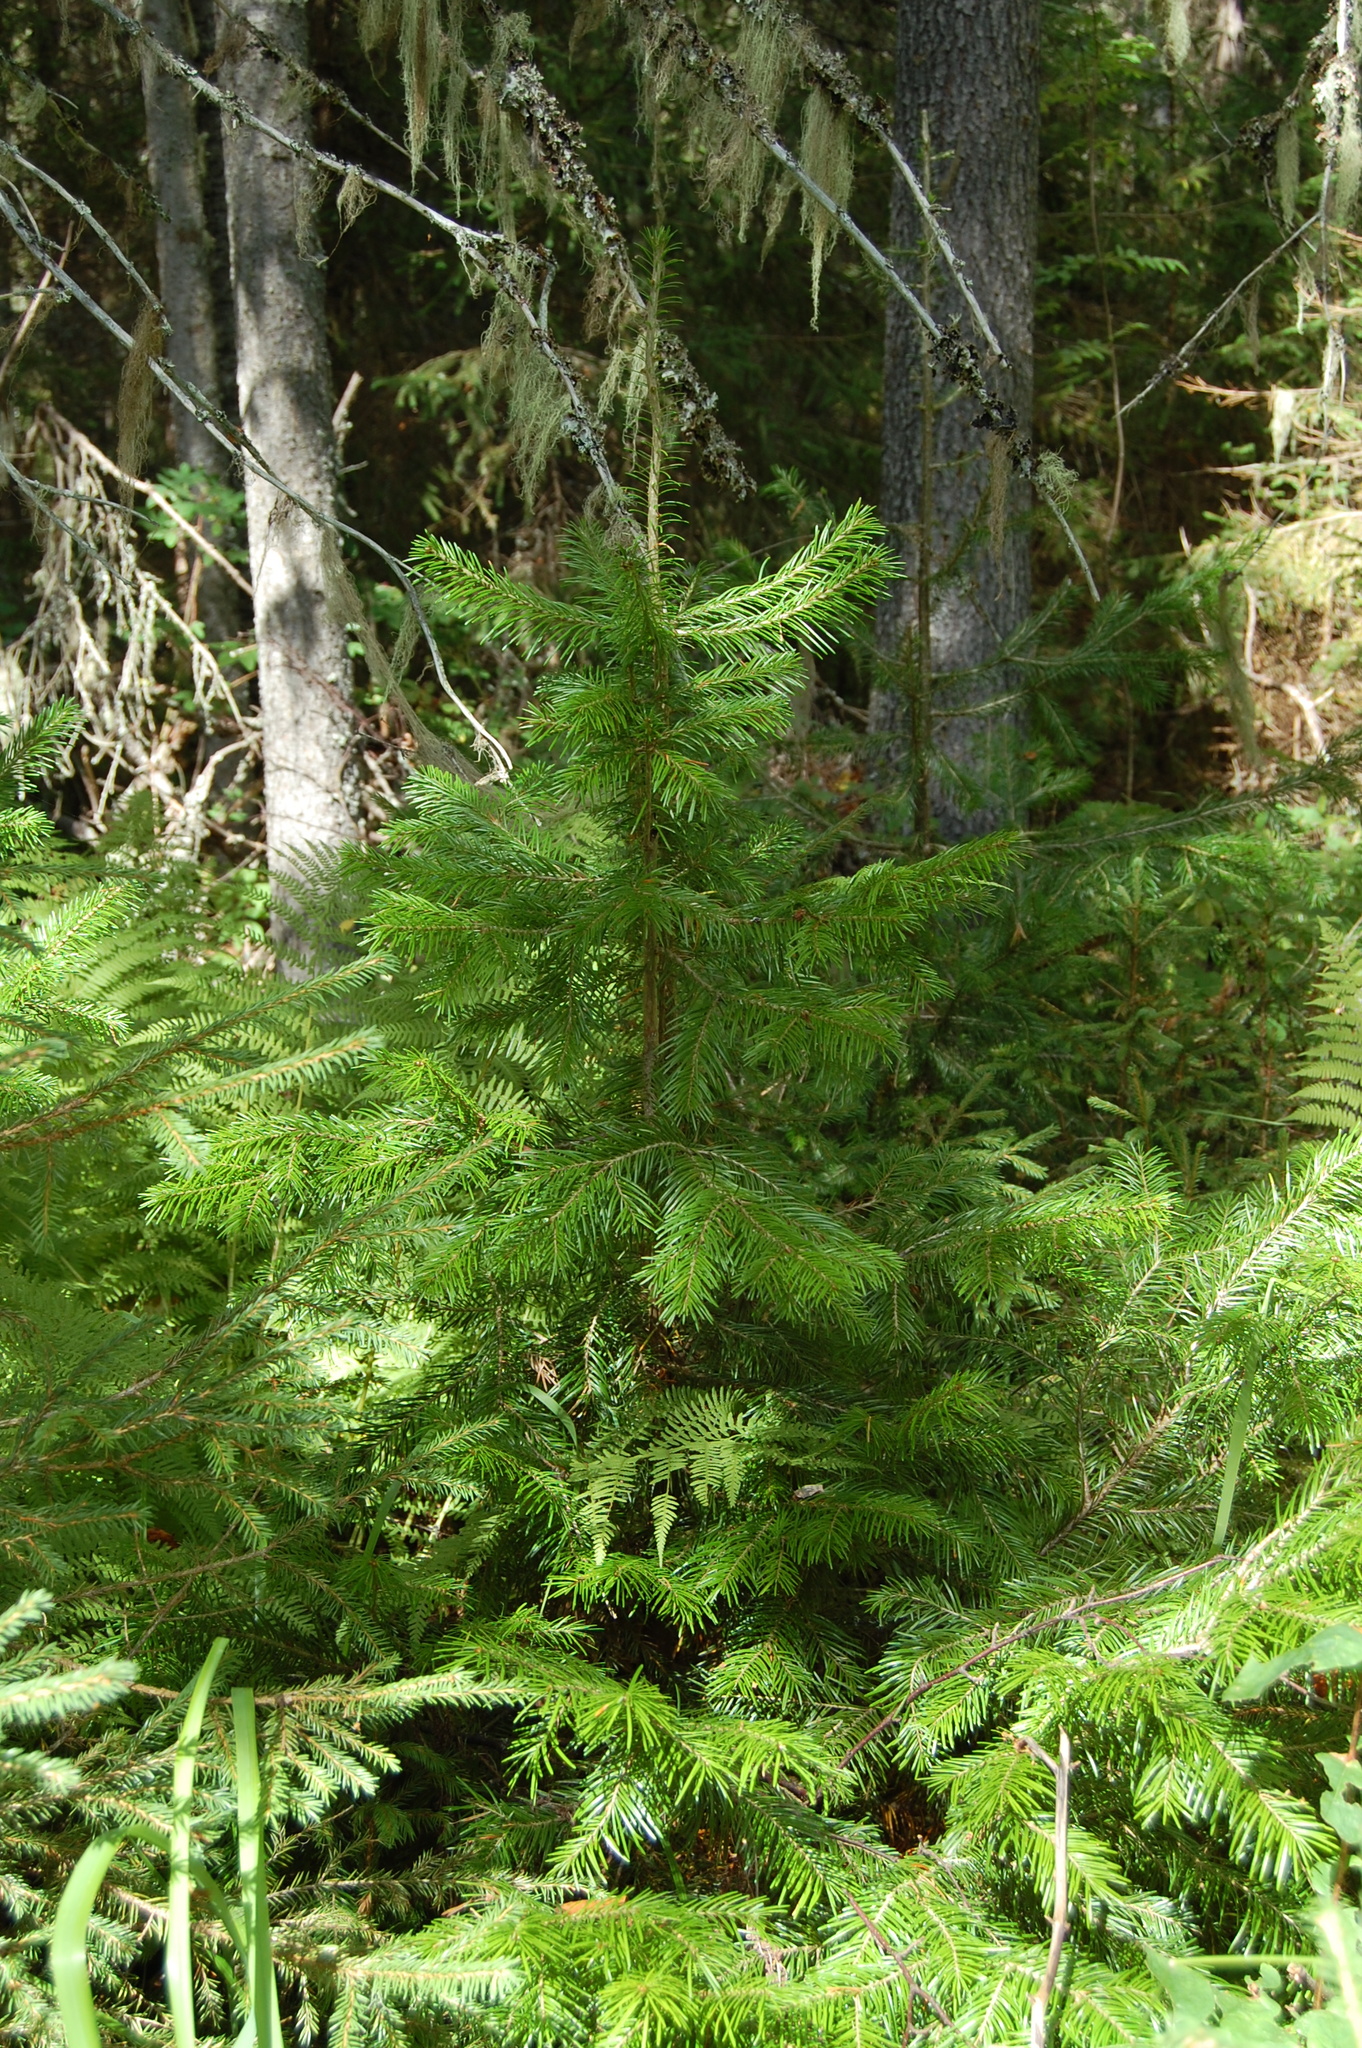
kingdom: Plantae
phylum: Tracheophyta
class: Pinopsida
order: Pinales
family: Pinaceae
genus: Abies
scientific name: Abies sibirica
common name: Siberian fir
